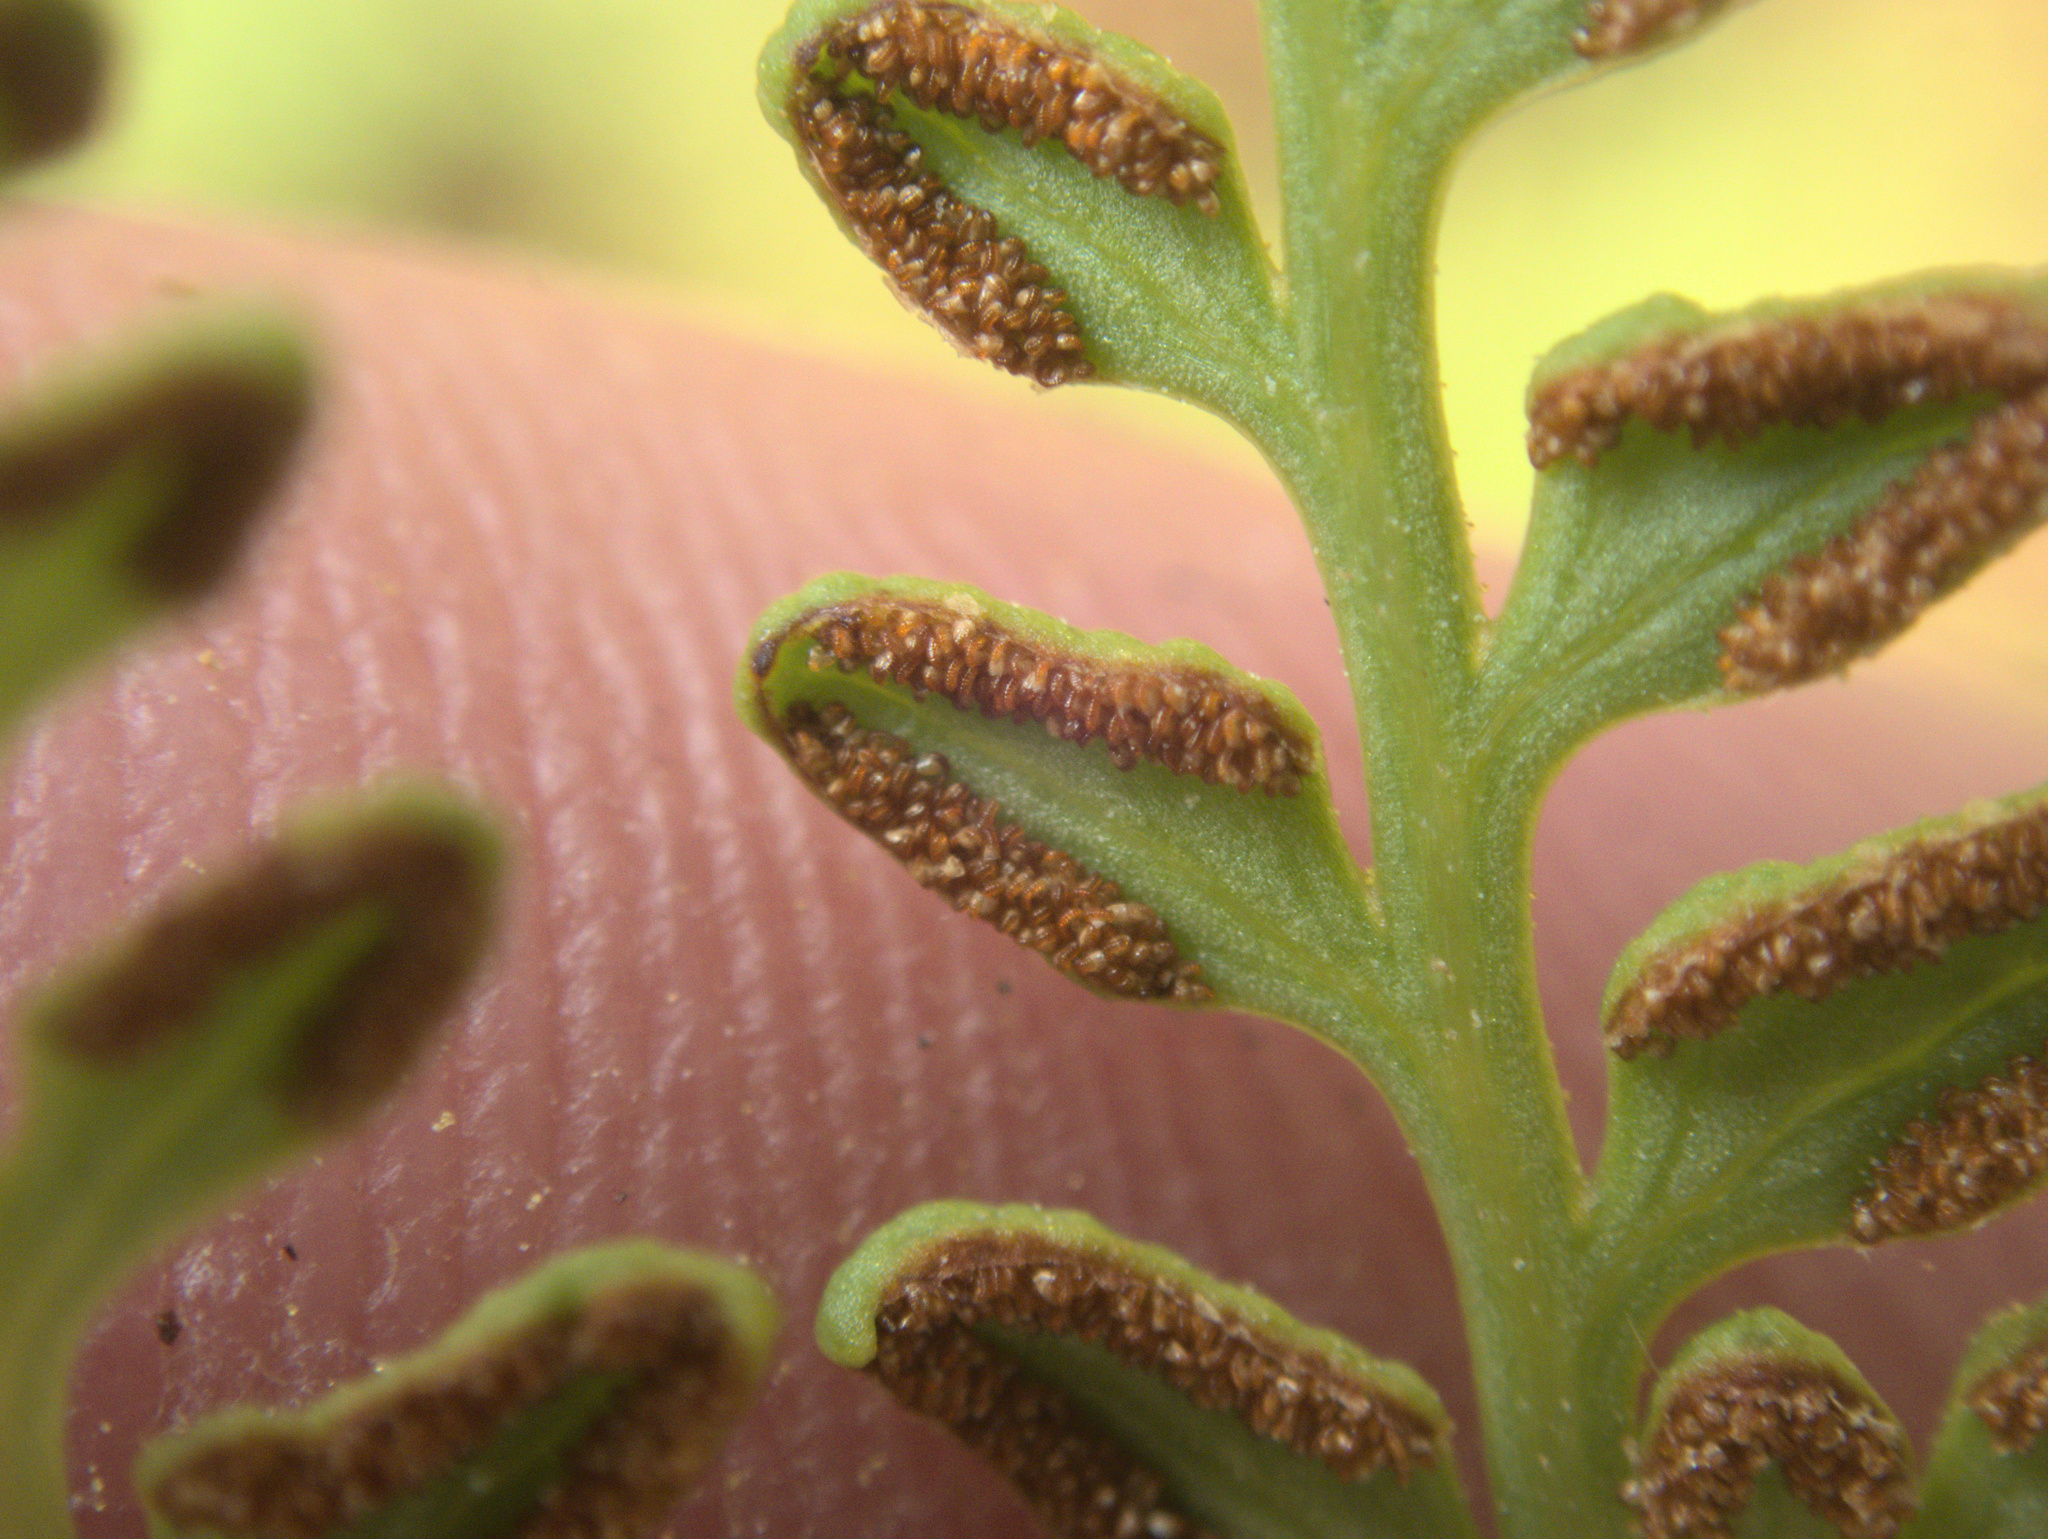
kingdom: Plantae
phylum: Tracheophyta
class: Polypodiopsida
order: Polypodiales
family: Dennstaedtiaceae
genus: Paesia
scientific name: Paesia scaberula
